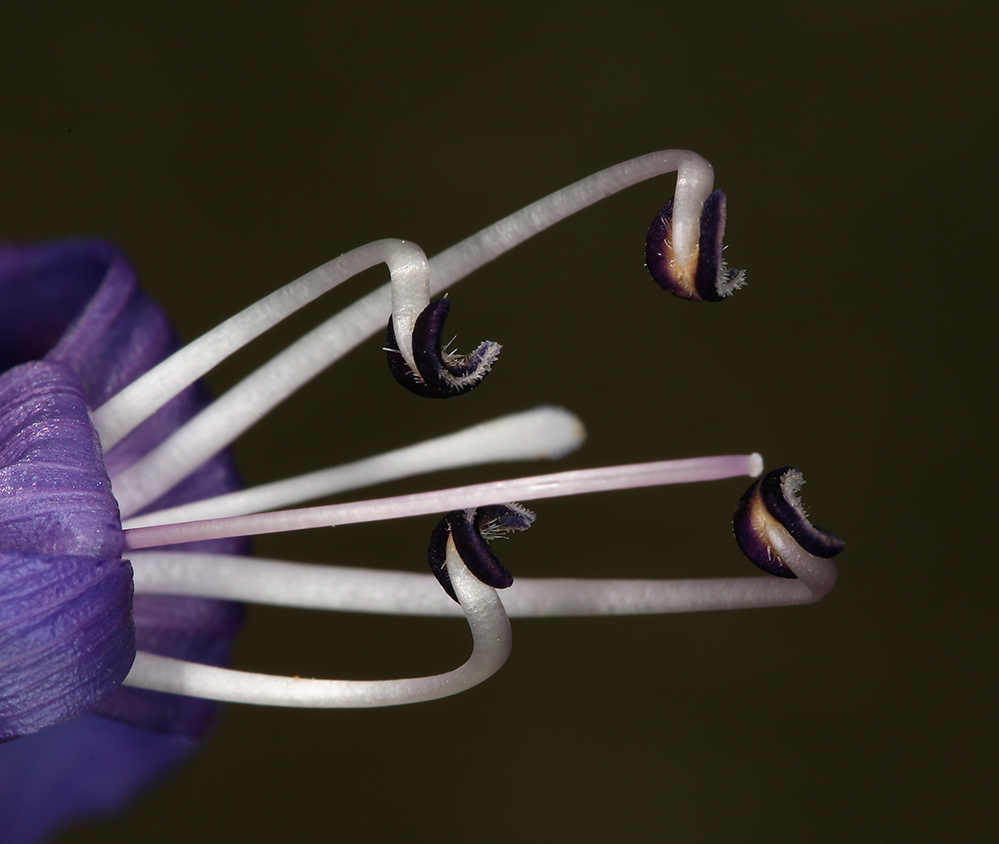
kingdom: Plantae
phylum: Tracheophyta
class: Magnoliopsida
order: Lamiales
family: Plantaginaceae
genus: Penstemon
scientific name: Penstemon azureus
